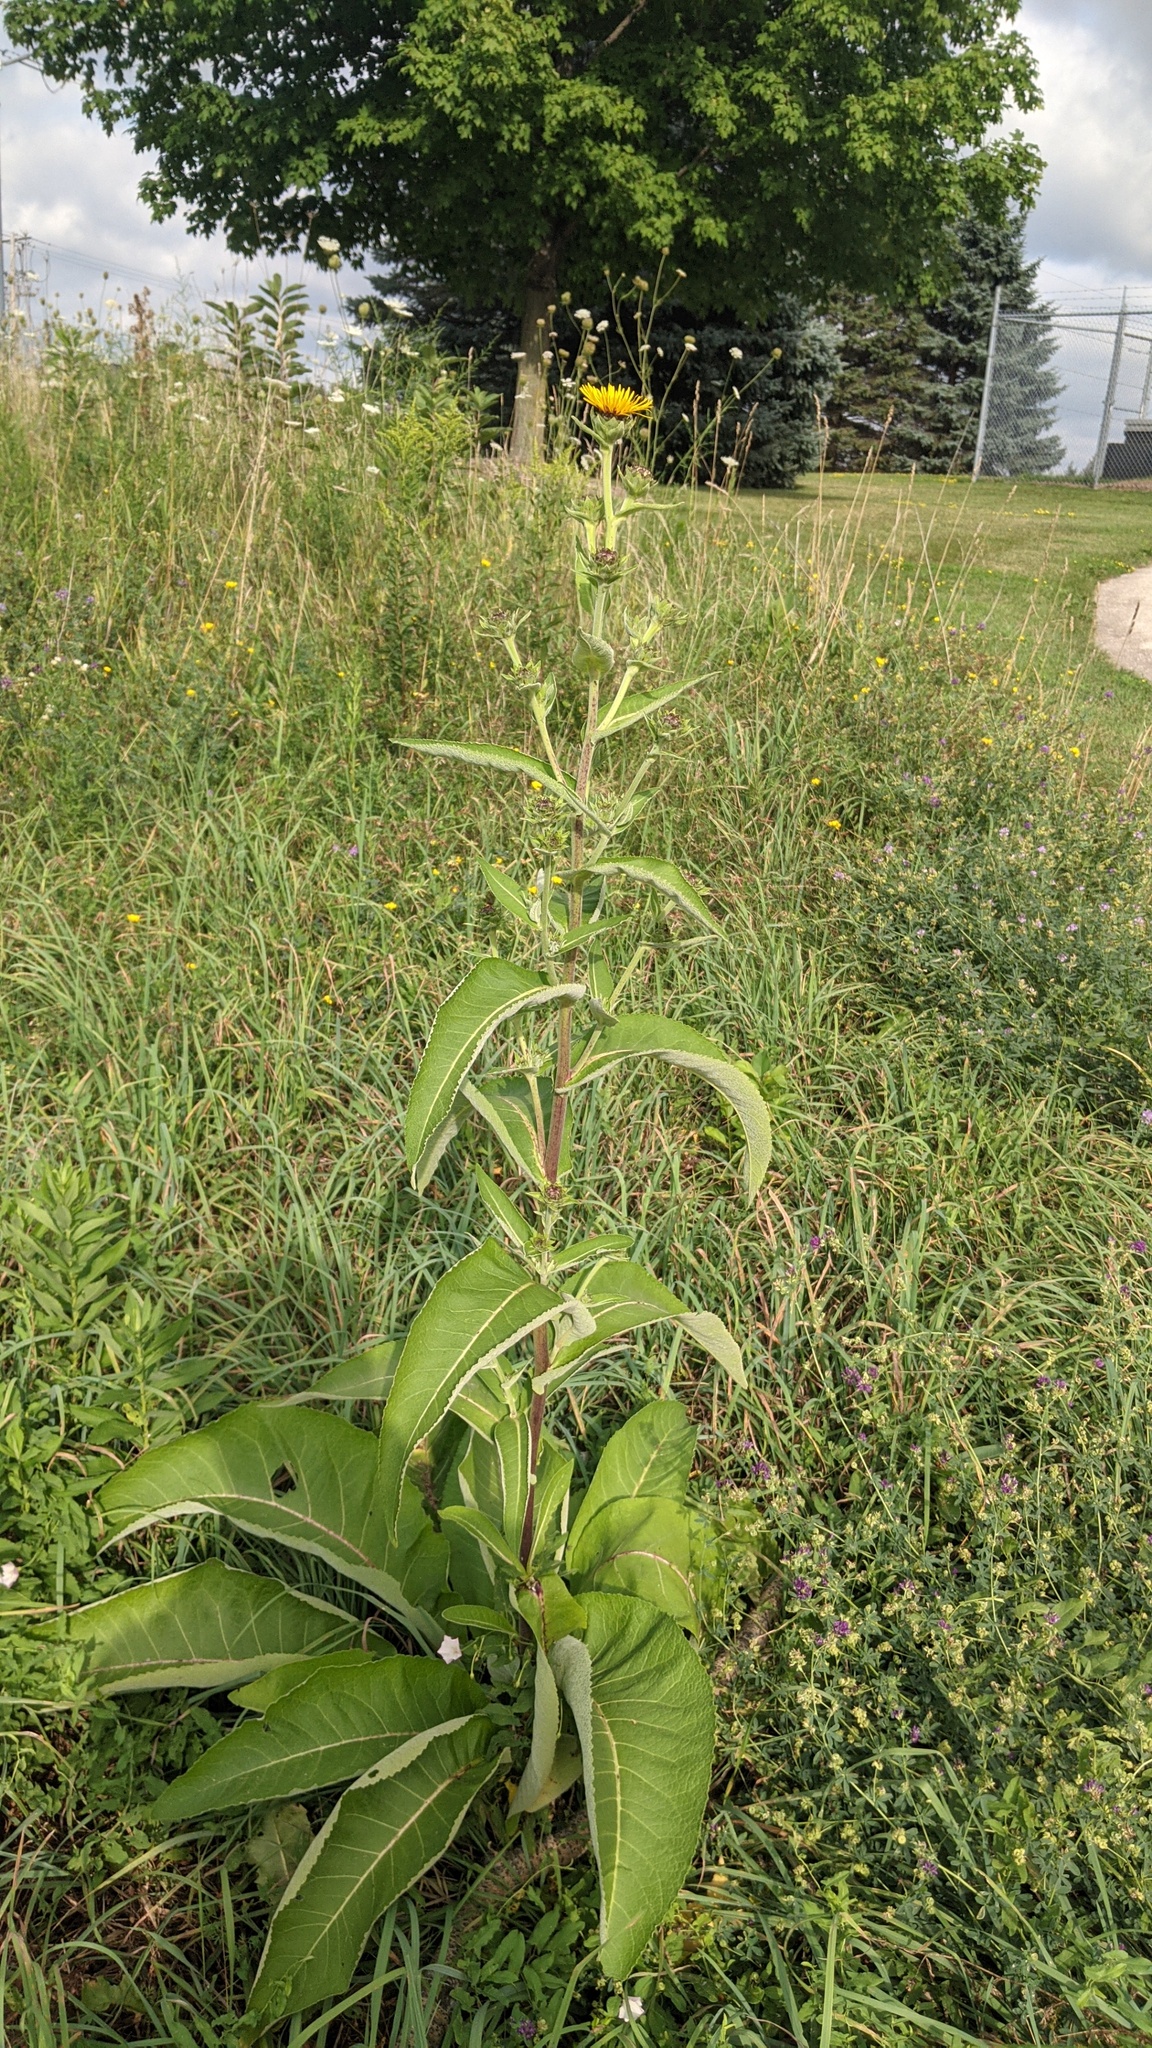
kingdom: Plantae
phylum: Tracheophyta
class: Magnoliopsida
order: Asterales
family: Asteraceae
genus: Inula
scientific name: Inula helenium
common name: Elecampane
